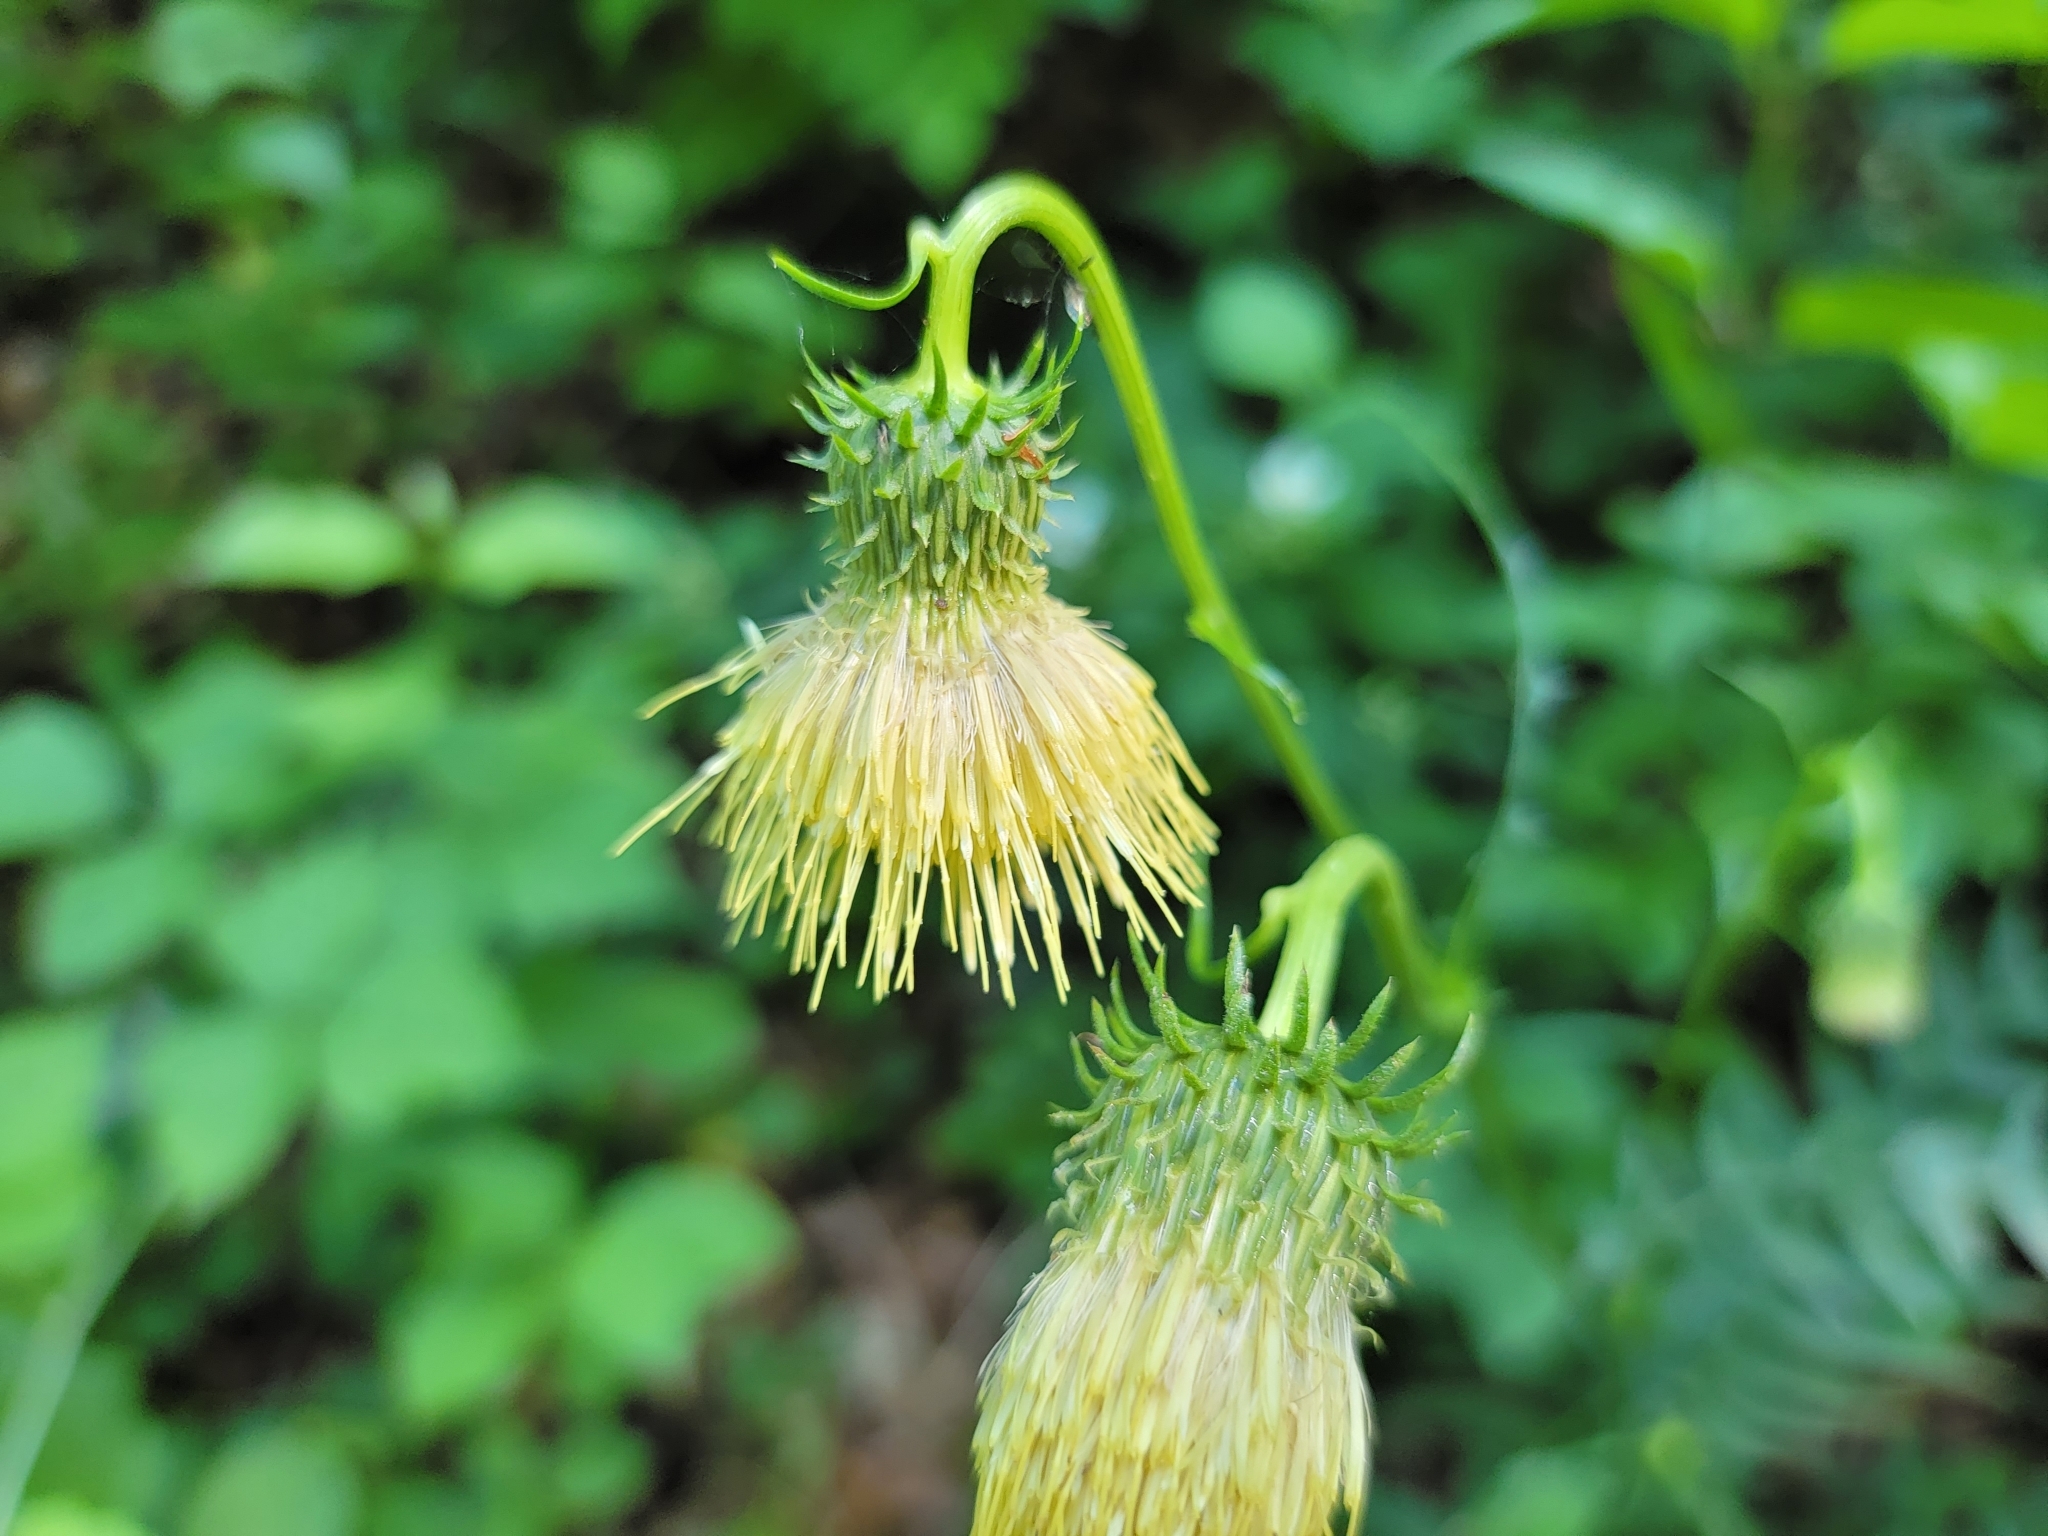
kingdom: Plantae
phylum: Tracheophyta
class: Magnoliopsida
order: Asterales
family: Asteraceae
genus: Cirsium
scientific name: Cirsium erisithales
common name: Yellow thistle
